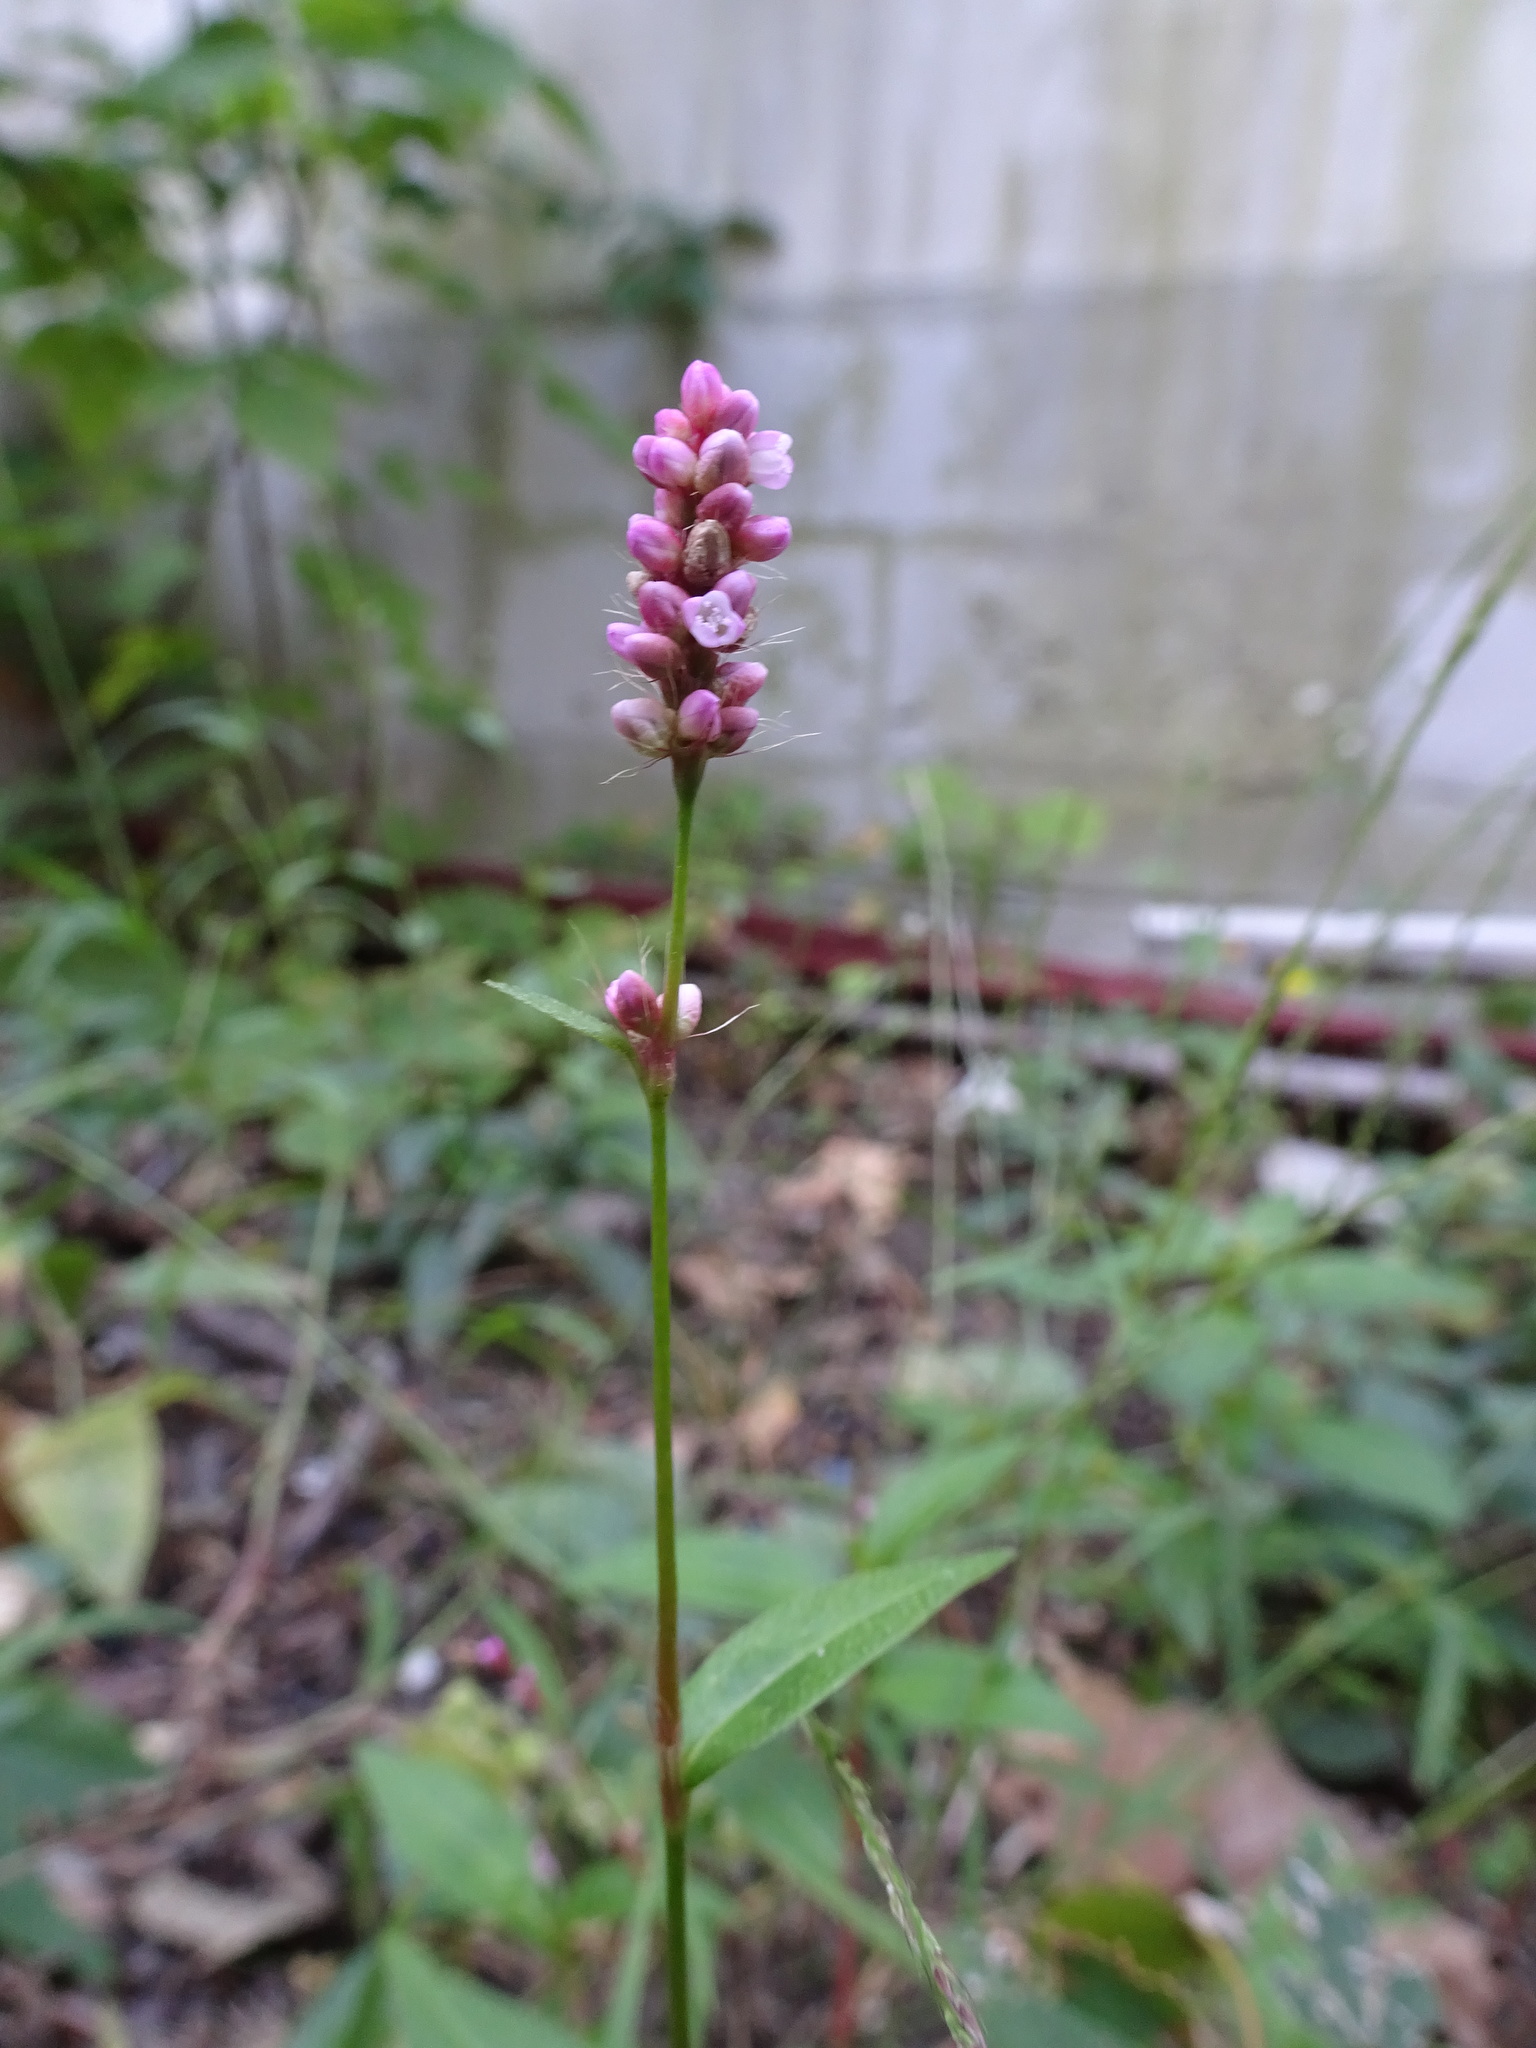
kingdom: Plantae
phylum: Tracheophyta
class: Magnoliopsida
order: Caryophyllales
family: Polygonaceae
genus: Persicaria
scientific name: Persicaria longiseta
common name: Bristly lady's-thumb
